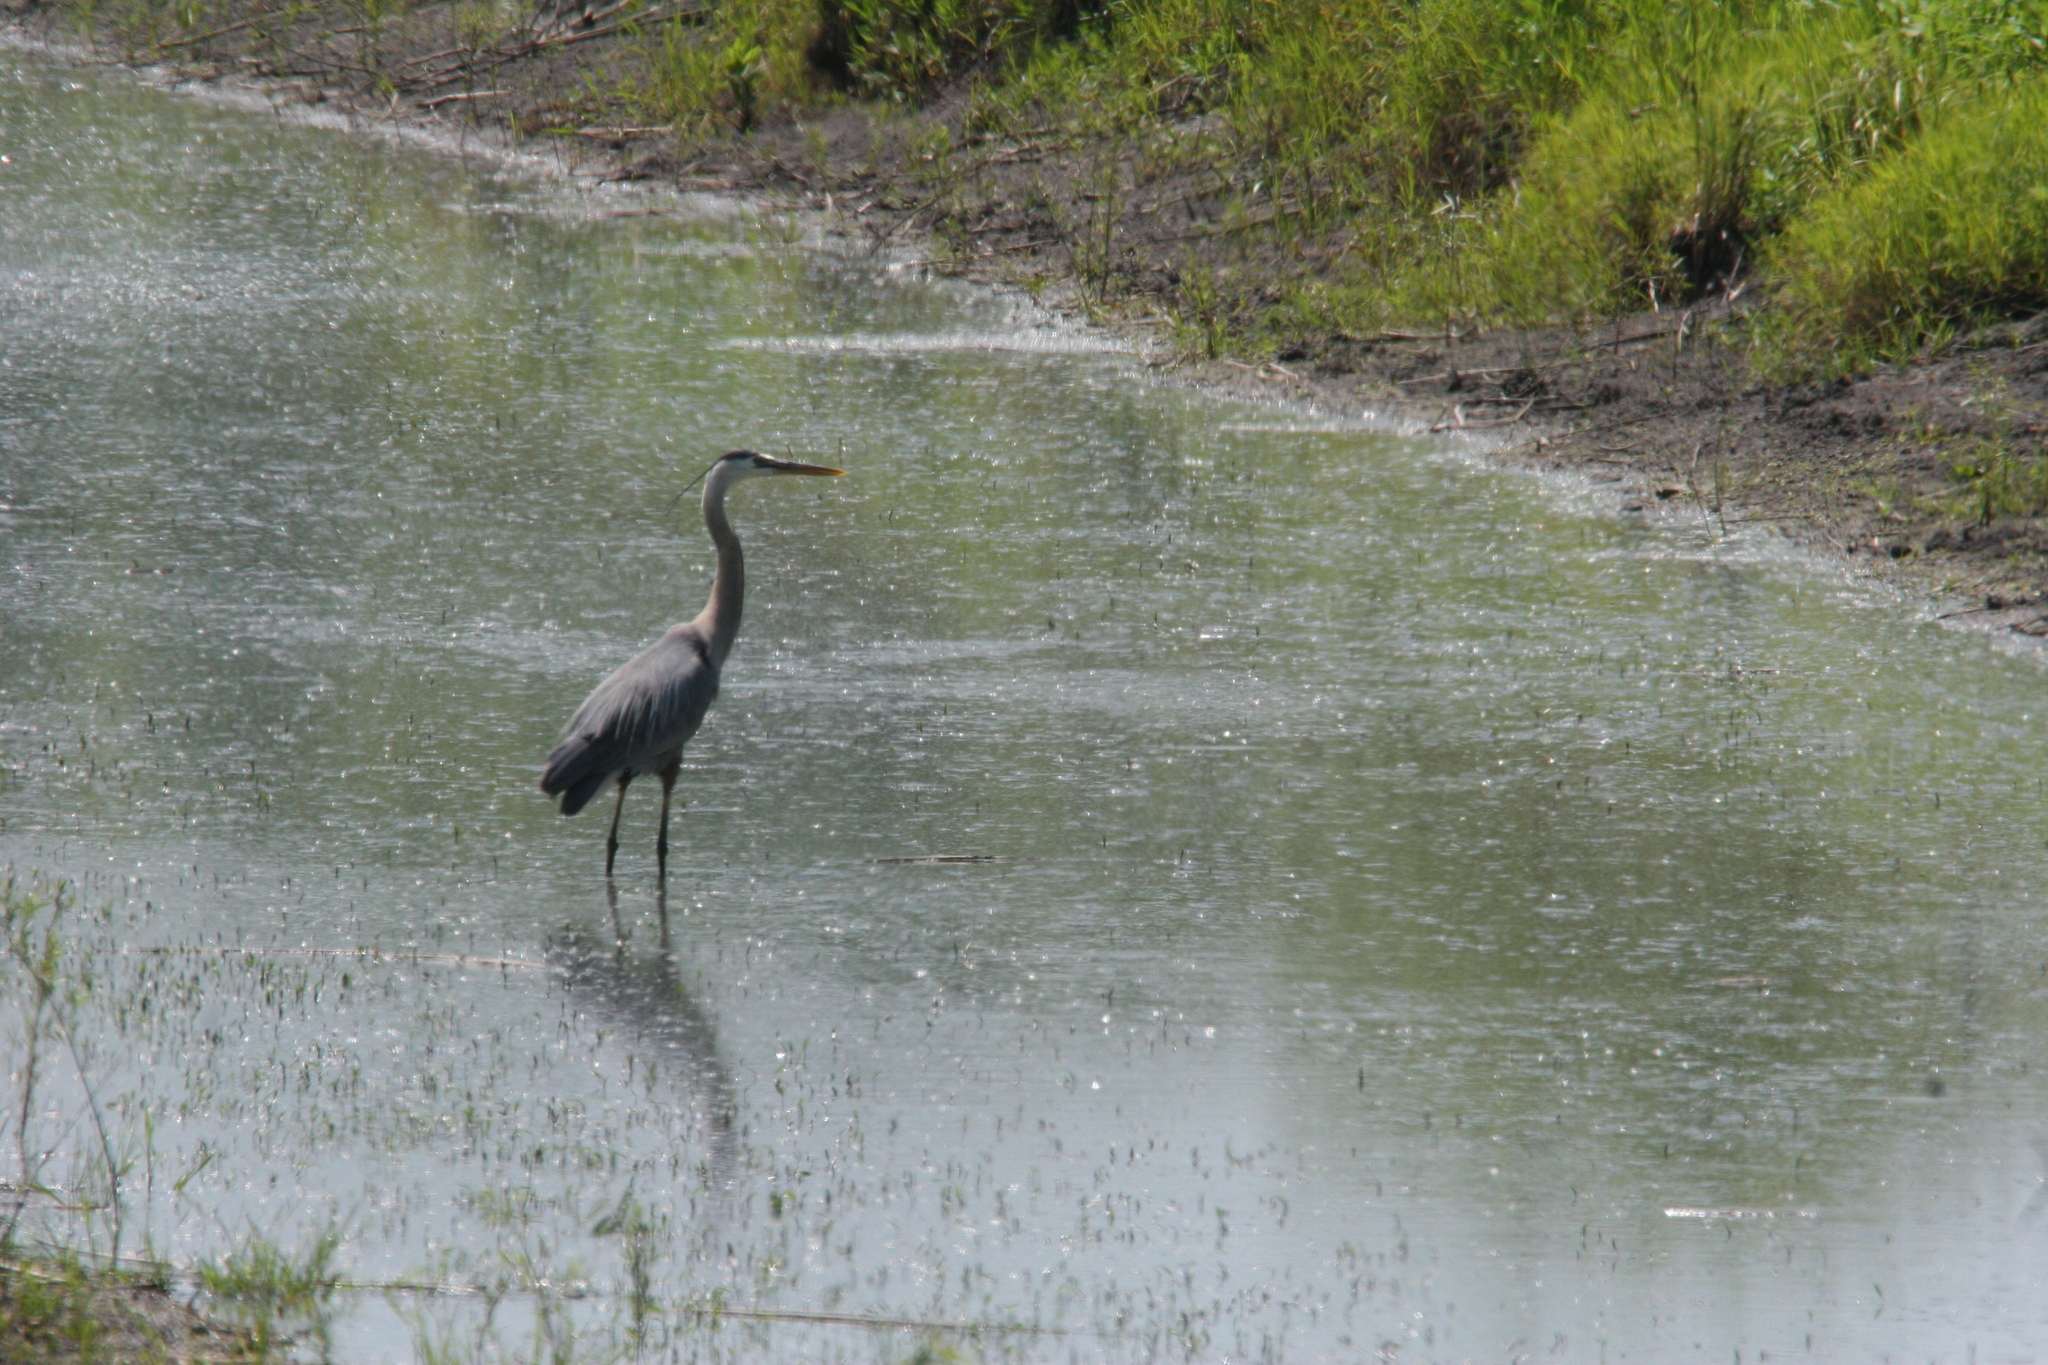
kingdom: Animalia
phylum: Chordata
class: Aves
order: Pelecaniformes
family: Ardeidae
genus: Ardea
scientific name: Ardea herodias
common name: Great blue heron
